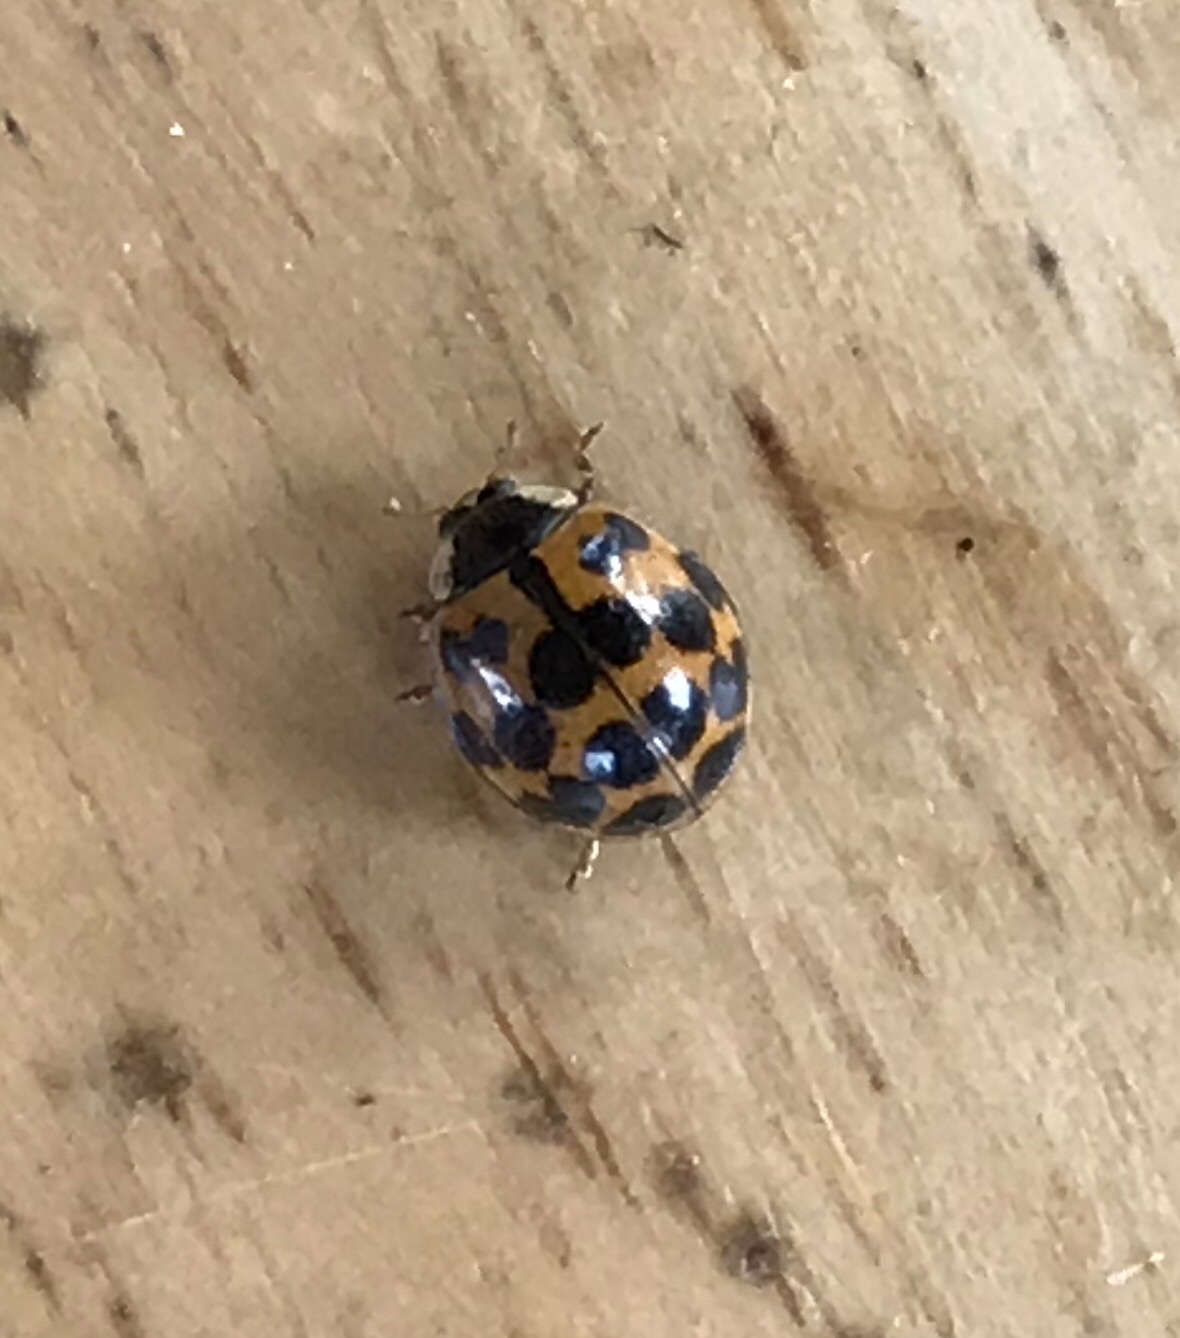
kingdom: Animalia
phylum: Arthropoda
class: Insecta
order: Coleoptera
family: Coccinellidae
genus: Harmonia
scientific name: Harmonia axyridis
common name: Harlequin ladybird
